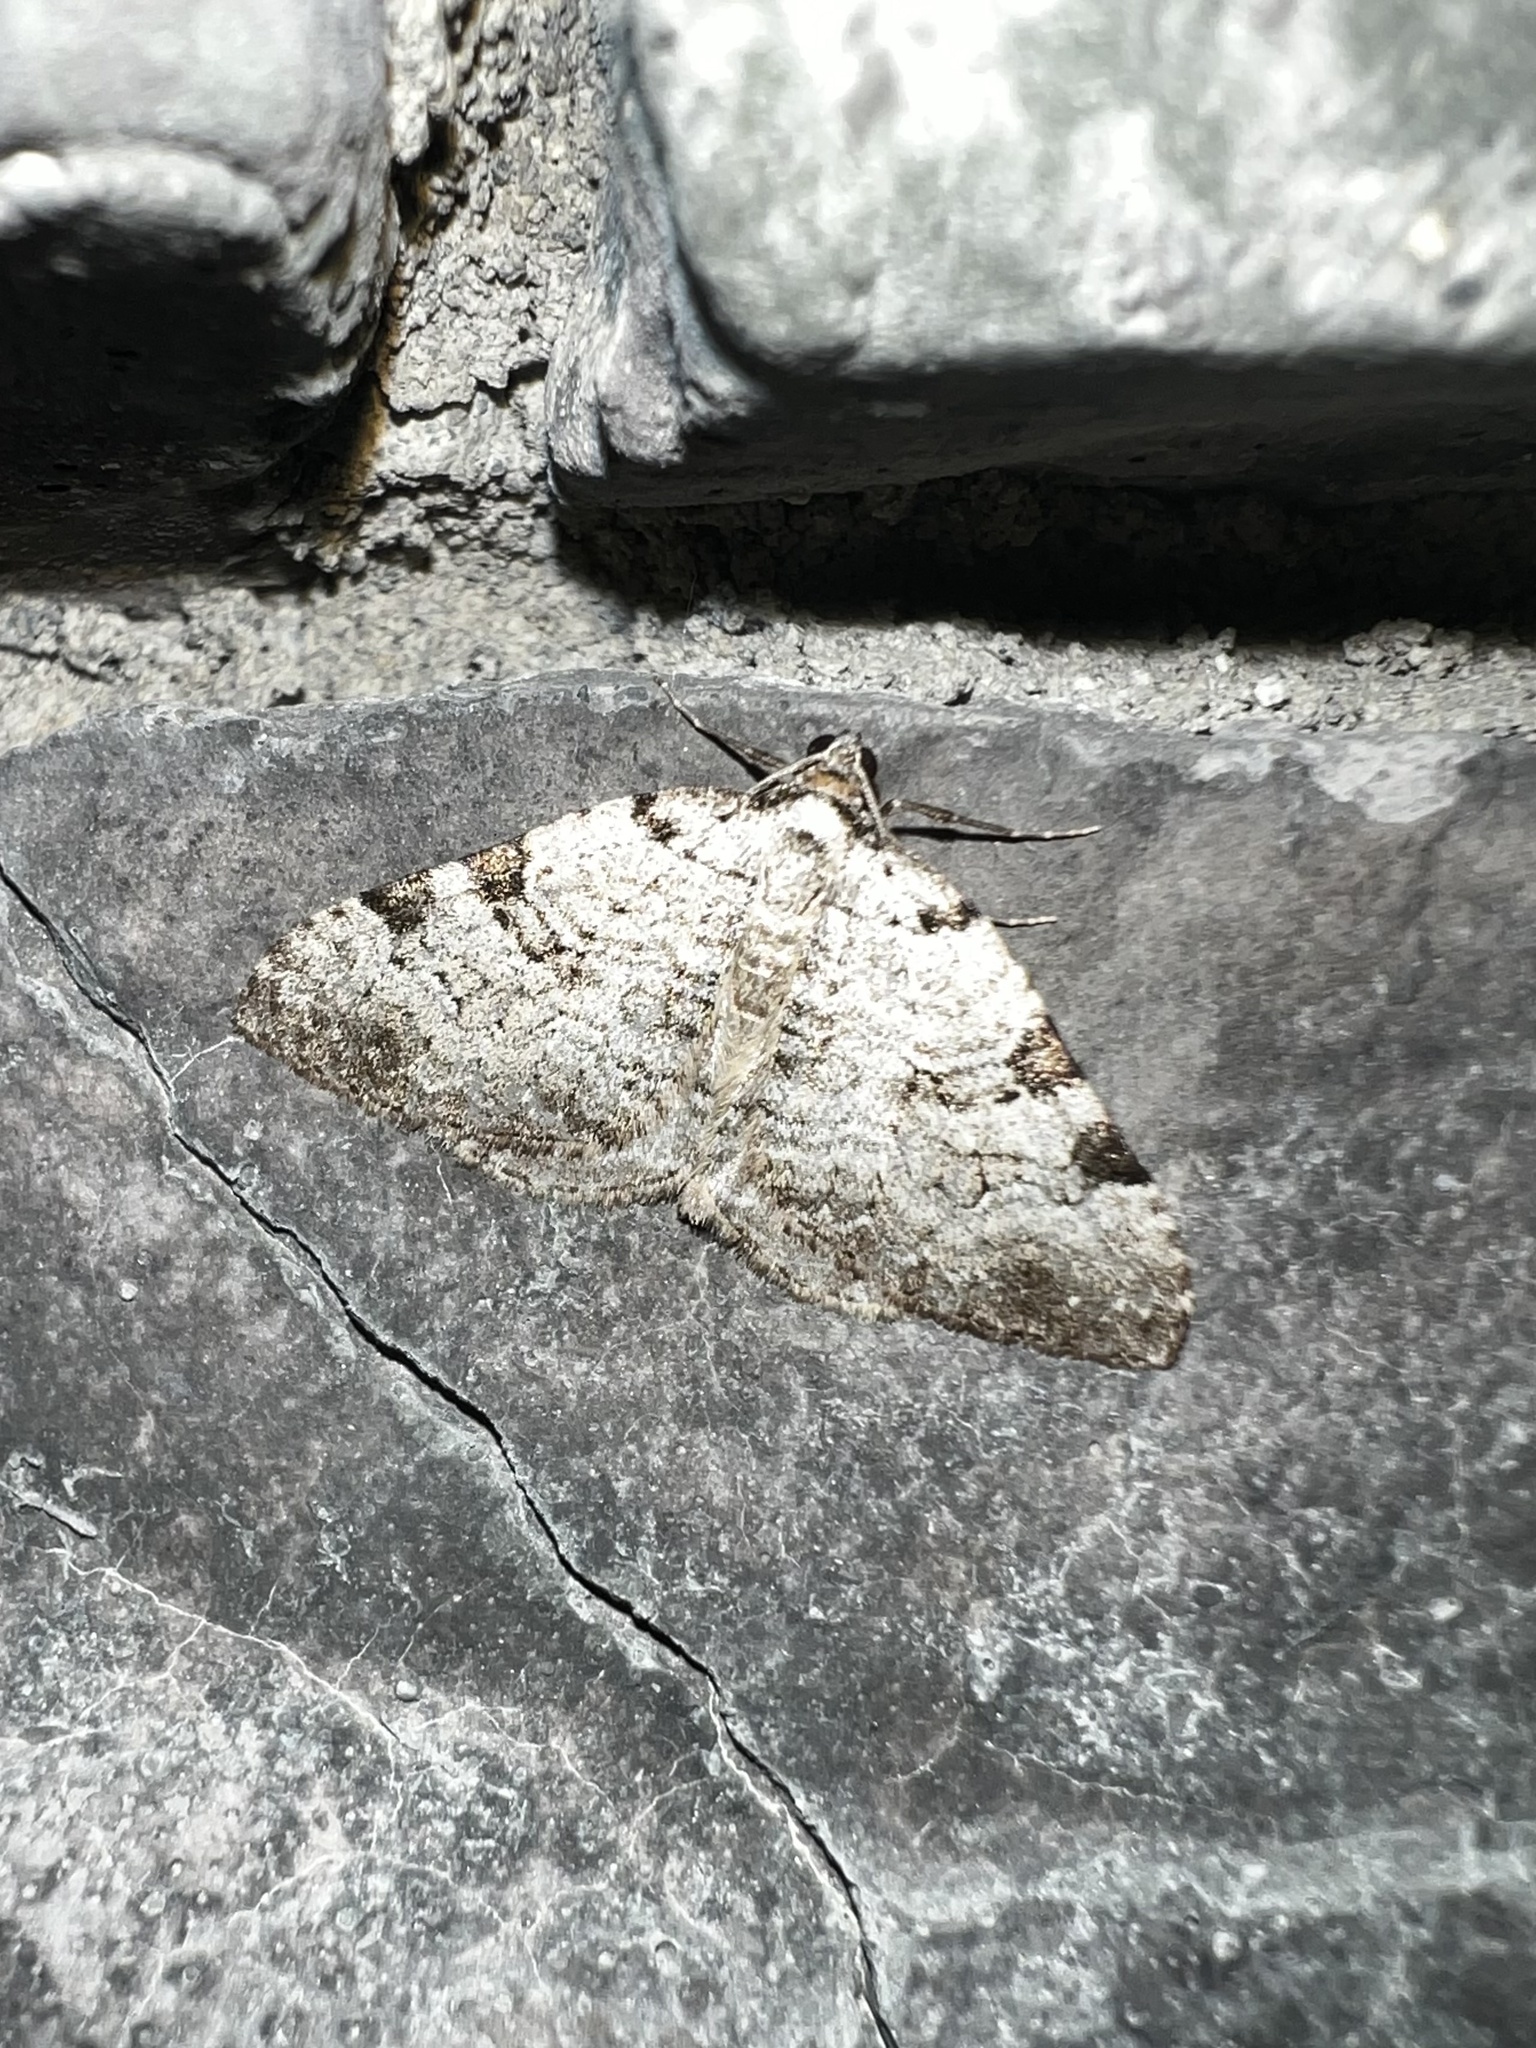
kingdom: Animalia
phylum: Arthropoda
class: Insecta
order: Lepidoptera
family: Geometridae
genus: Perizoma
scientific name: Perizoma costiguttata
